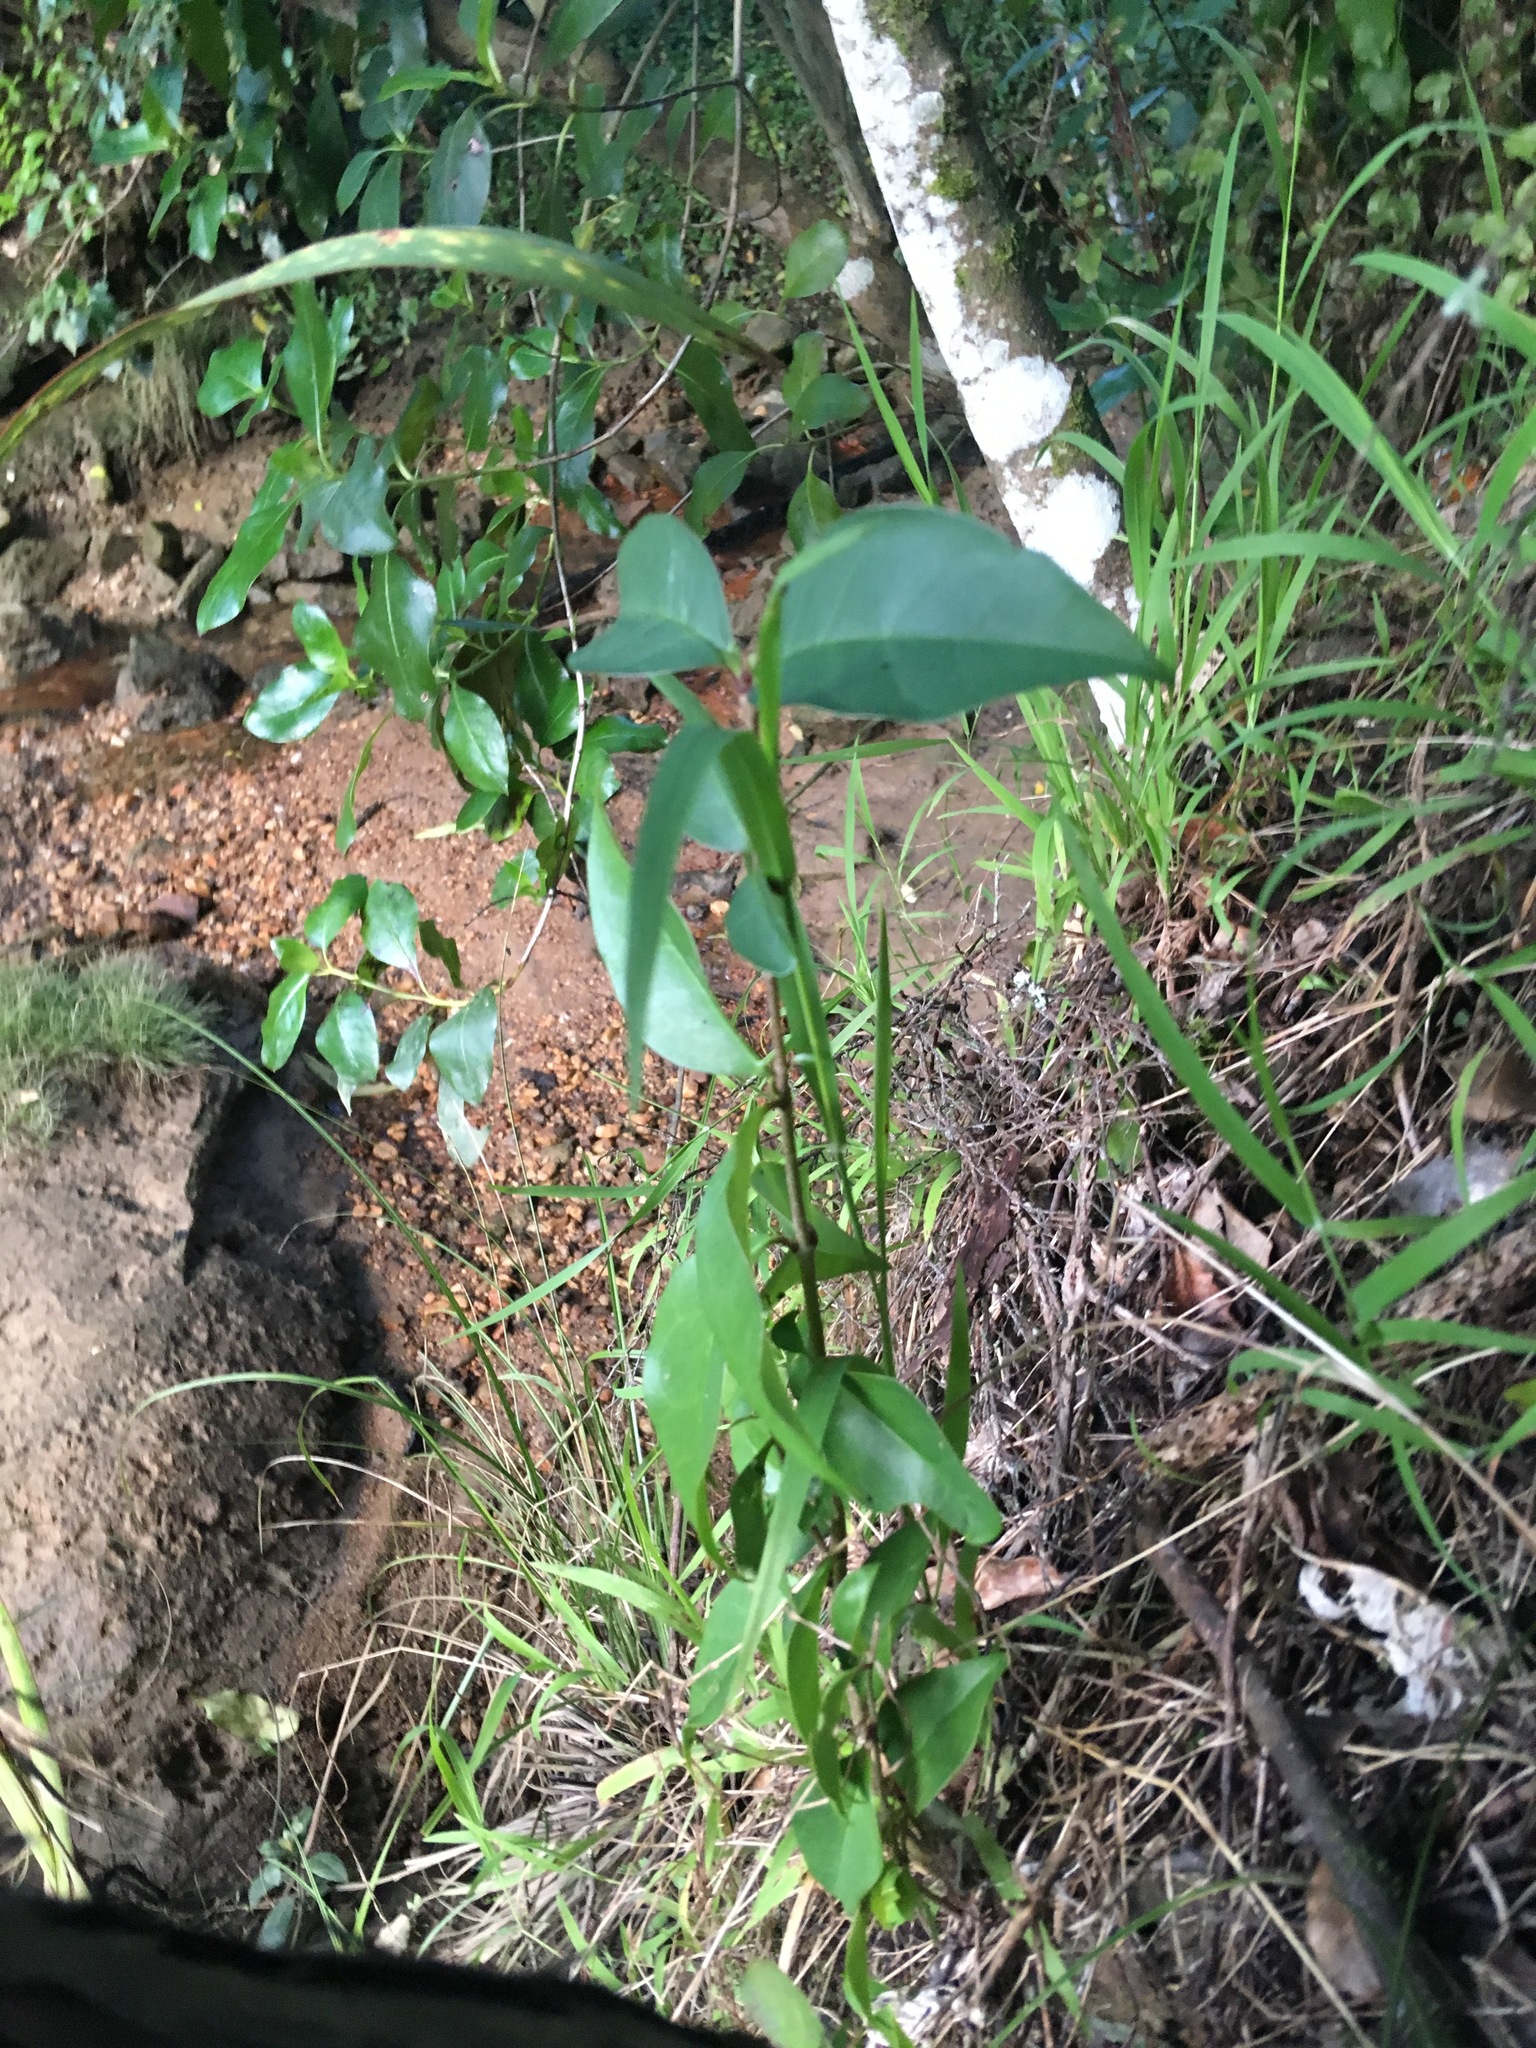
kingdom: Plantae
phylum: Tracheophyta
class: Magnoliopsida
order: Lamiales
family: Oleaceae
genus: Ligustrum
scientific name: Ligustrum lucidum
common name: Glossy privet
